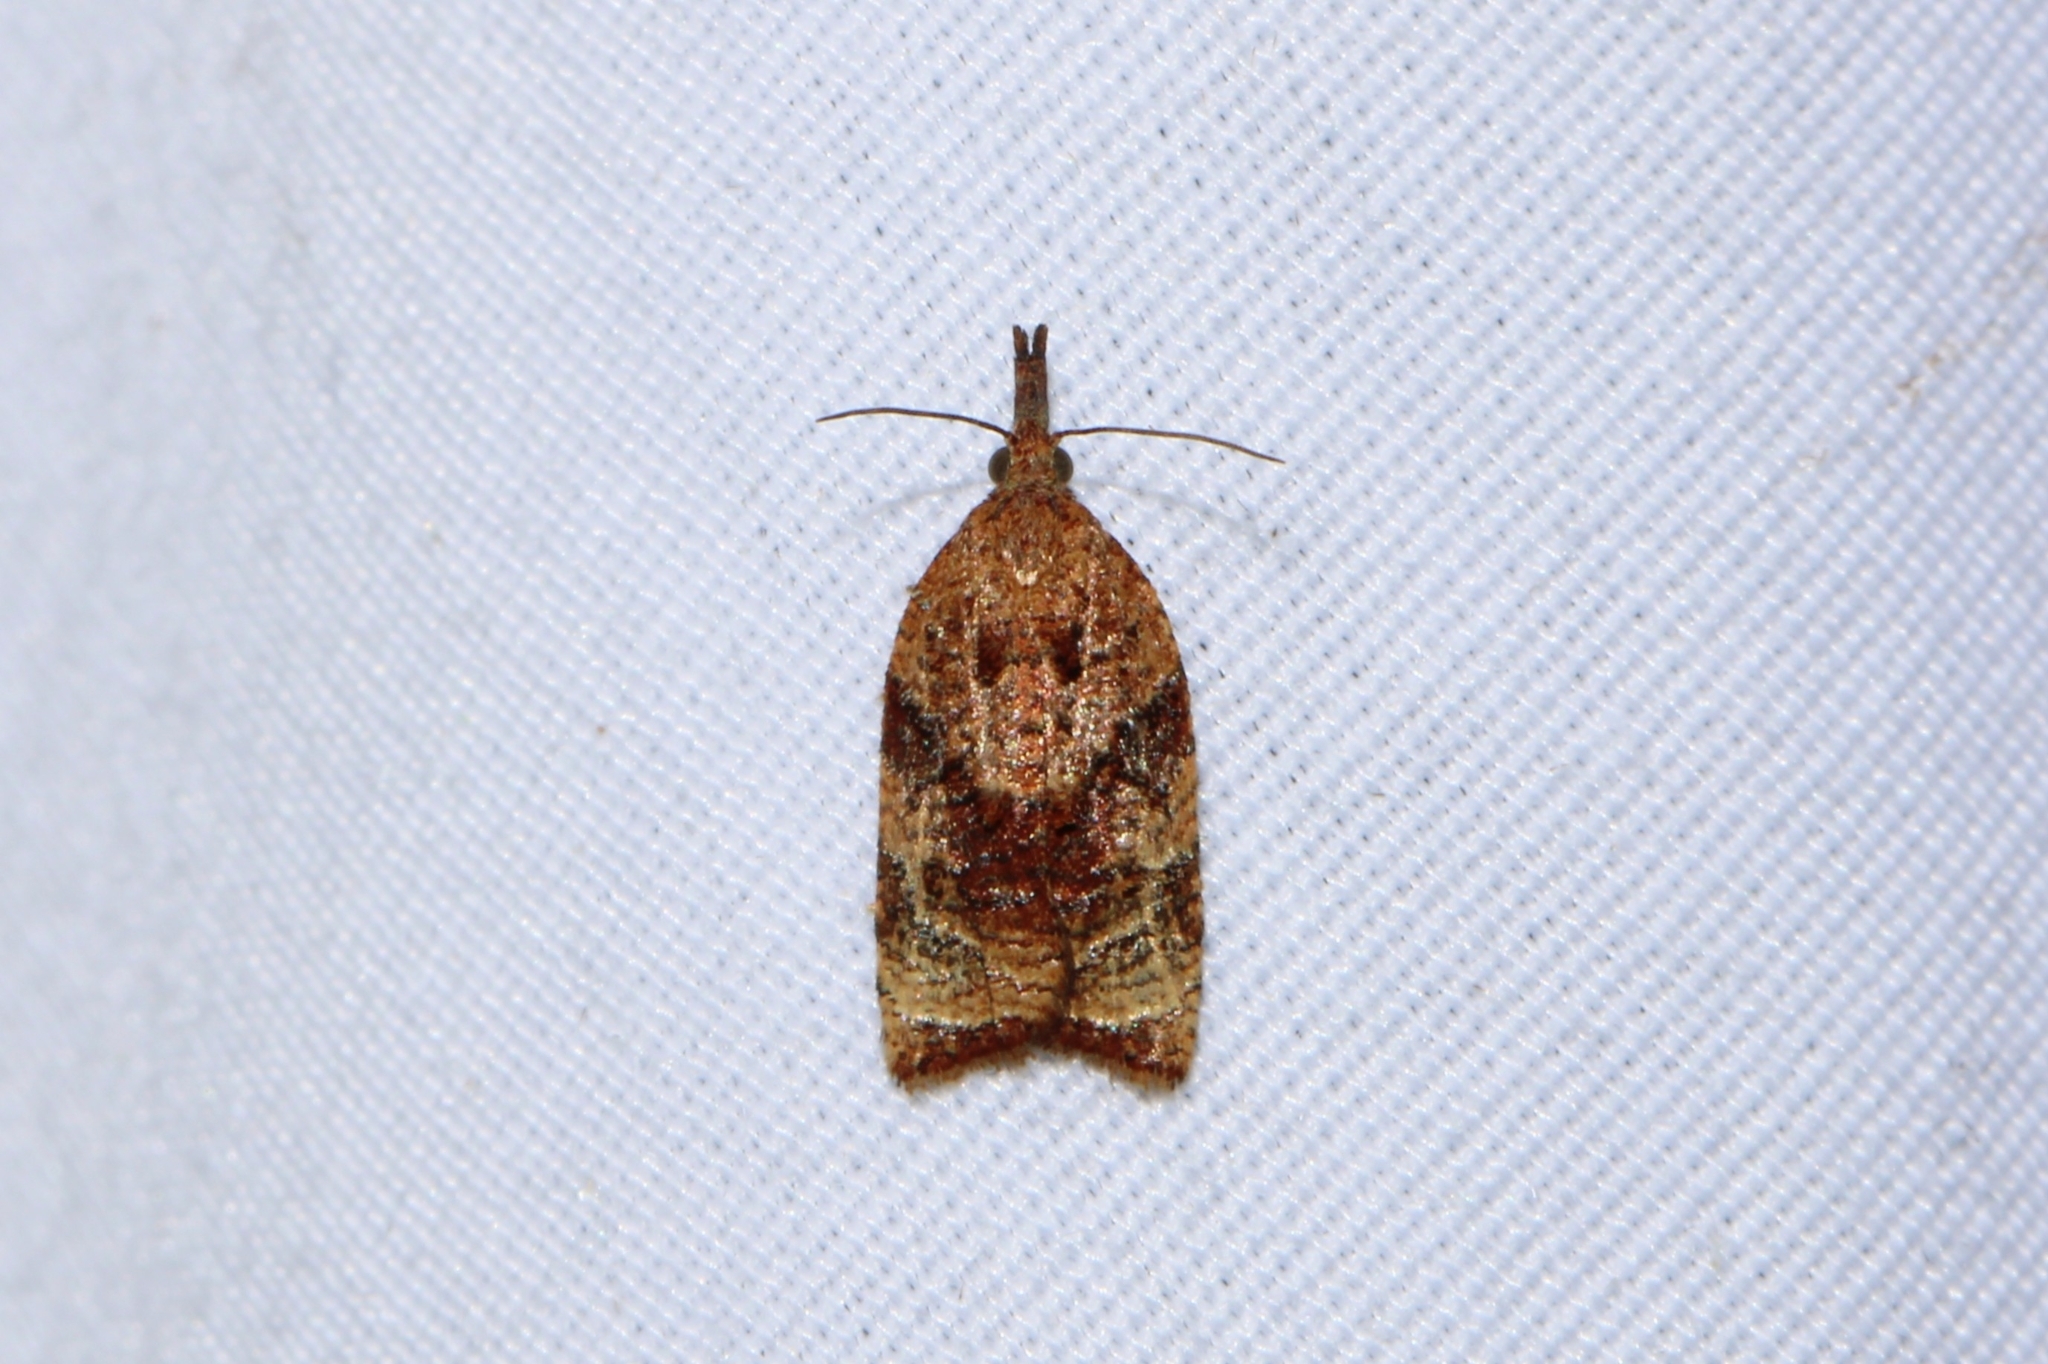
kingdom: Animalia
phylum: Arthropoda
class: Insecta
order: Lepidoptera
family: Tortricidae
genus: Platynota
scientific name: Platynota flavedana
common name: Black-shaded platynota moth
